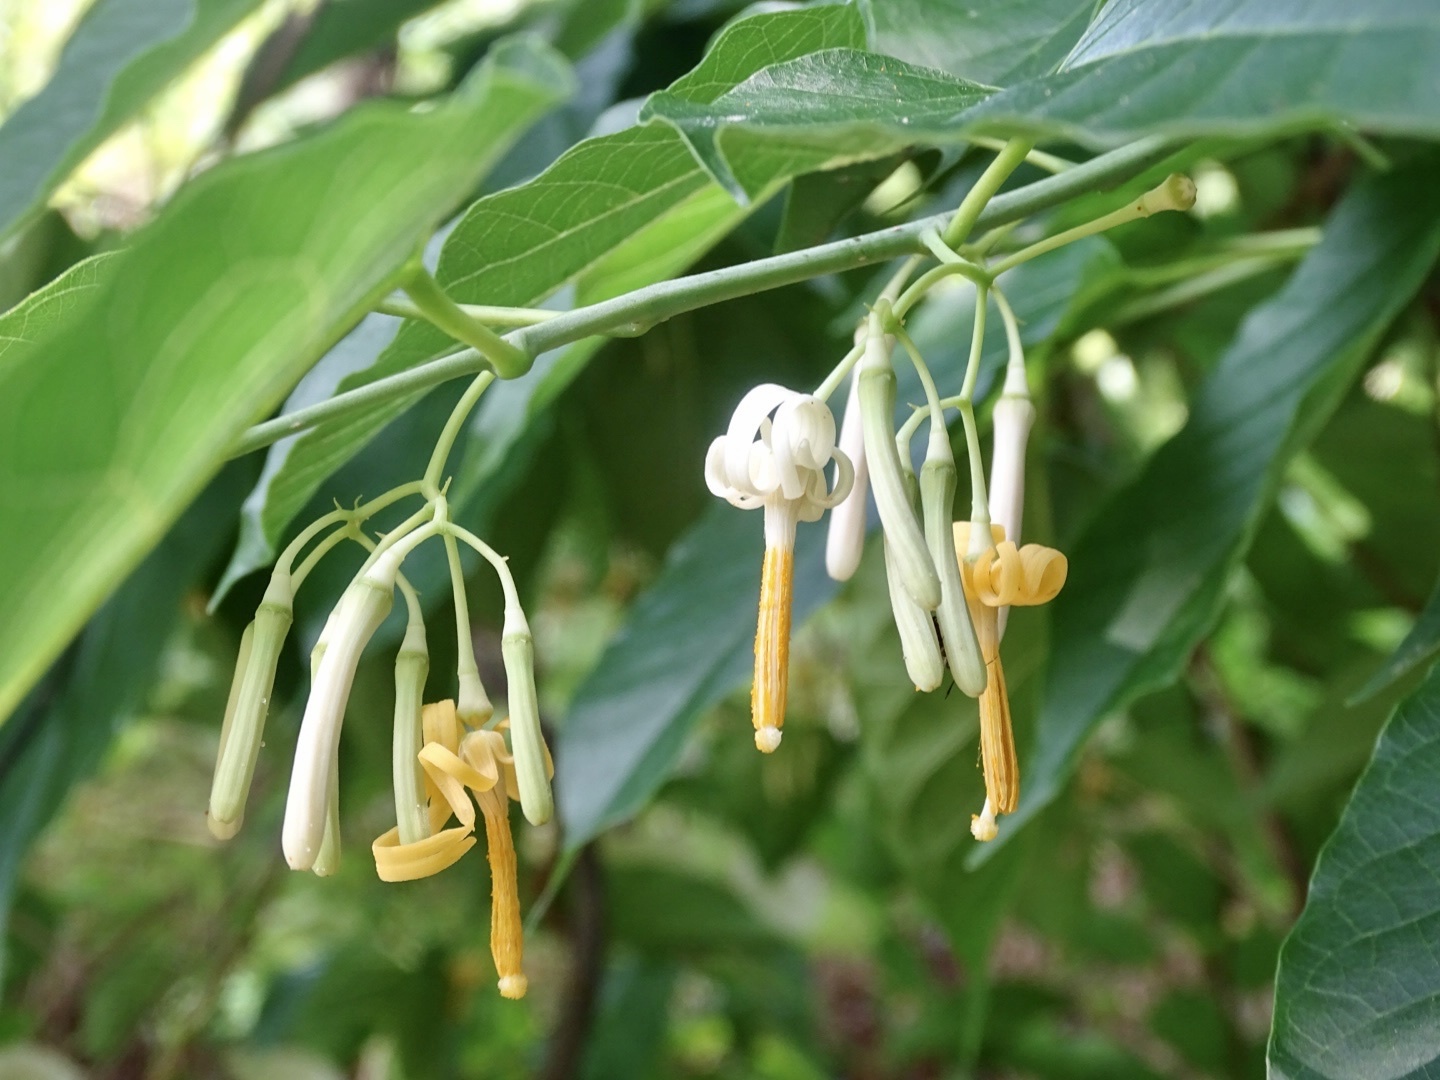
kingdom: Plantae
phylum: Tracheophyta
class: Magnoliopsida
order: Cornales
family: Cornaceae
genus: Alangium
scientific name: Alangium chinense
